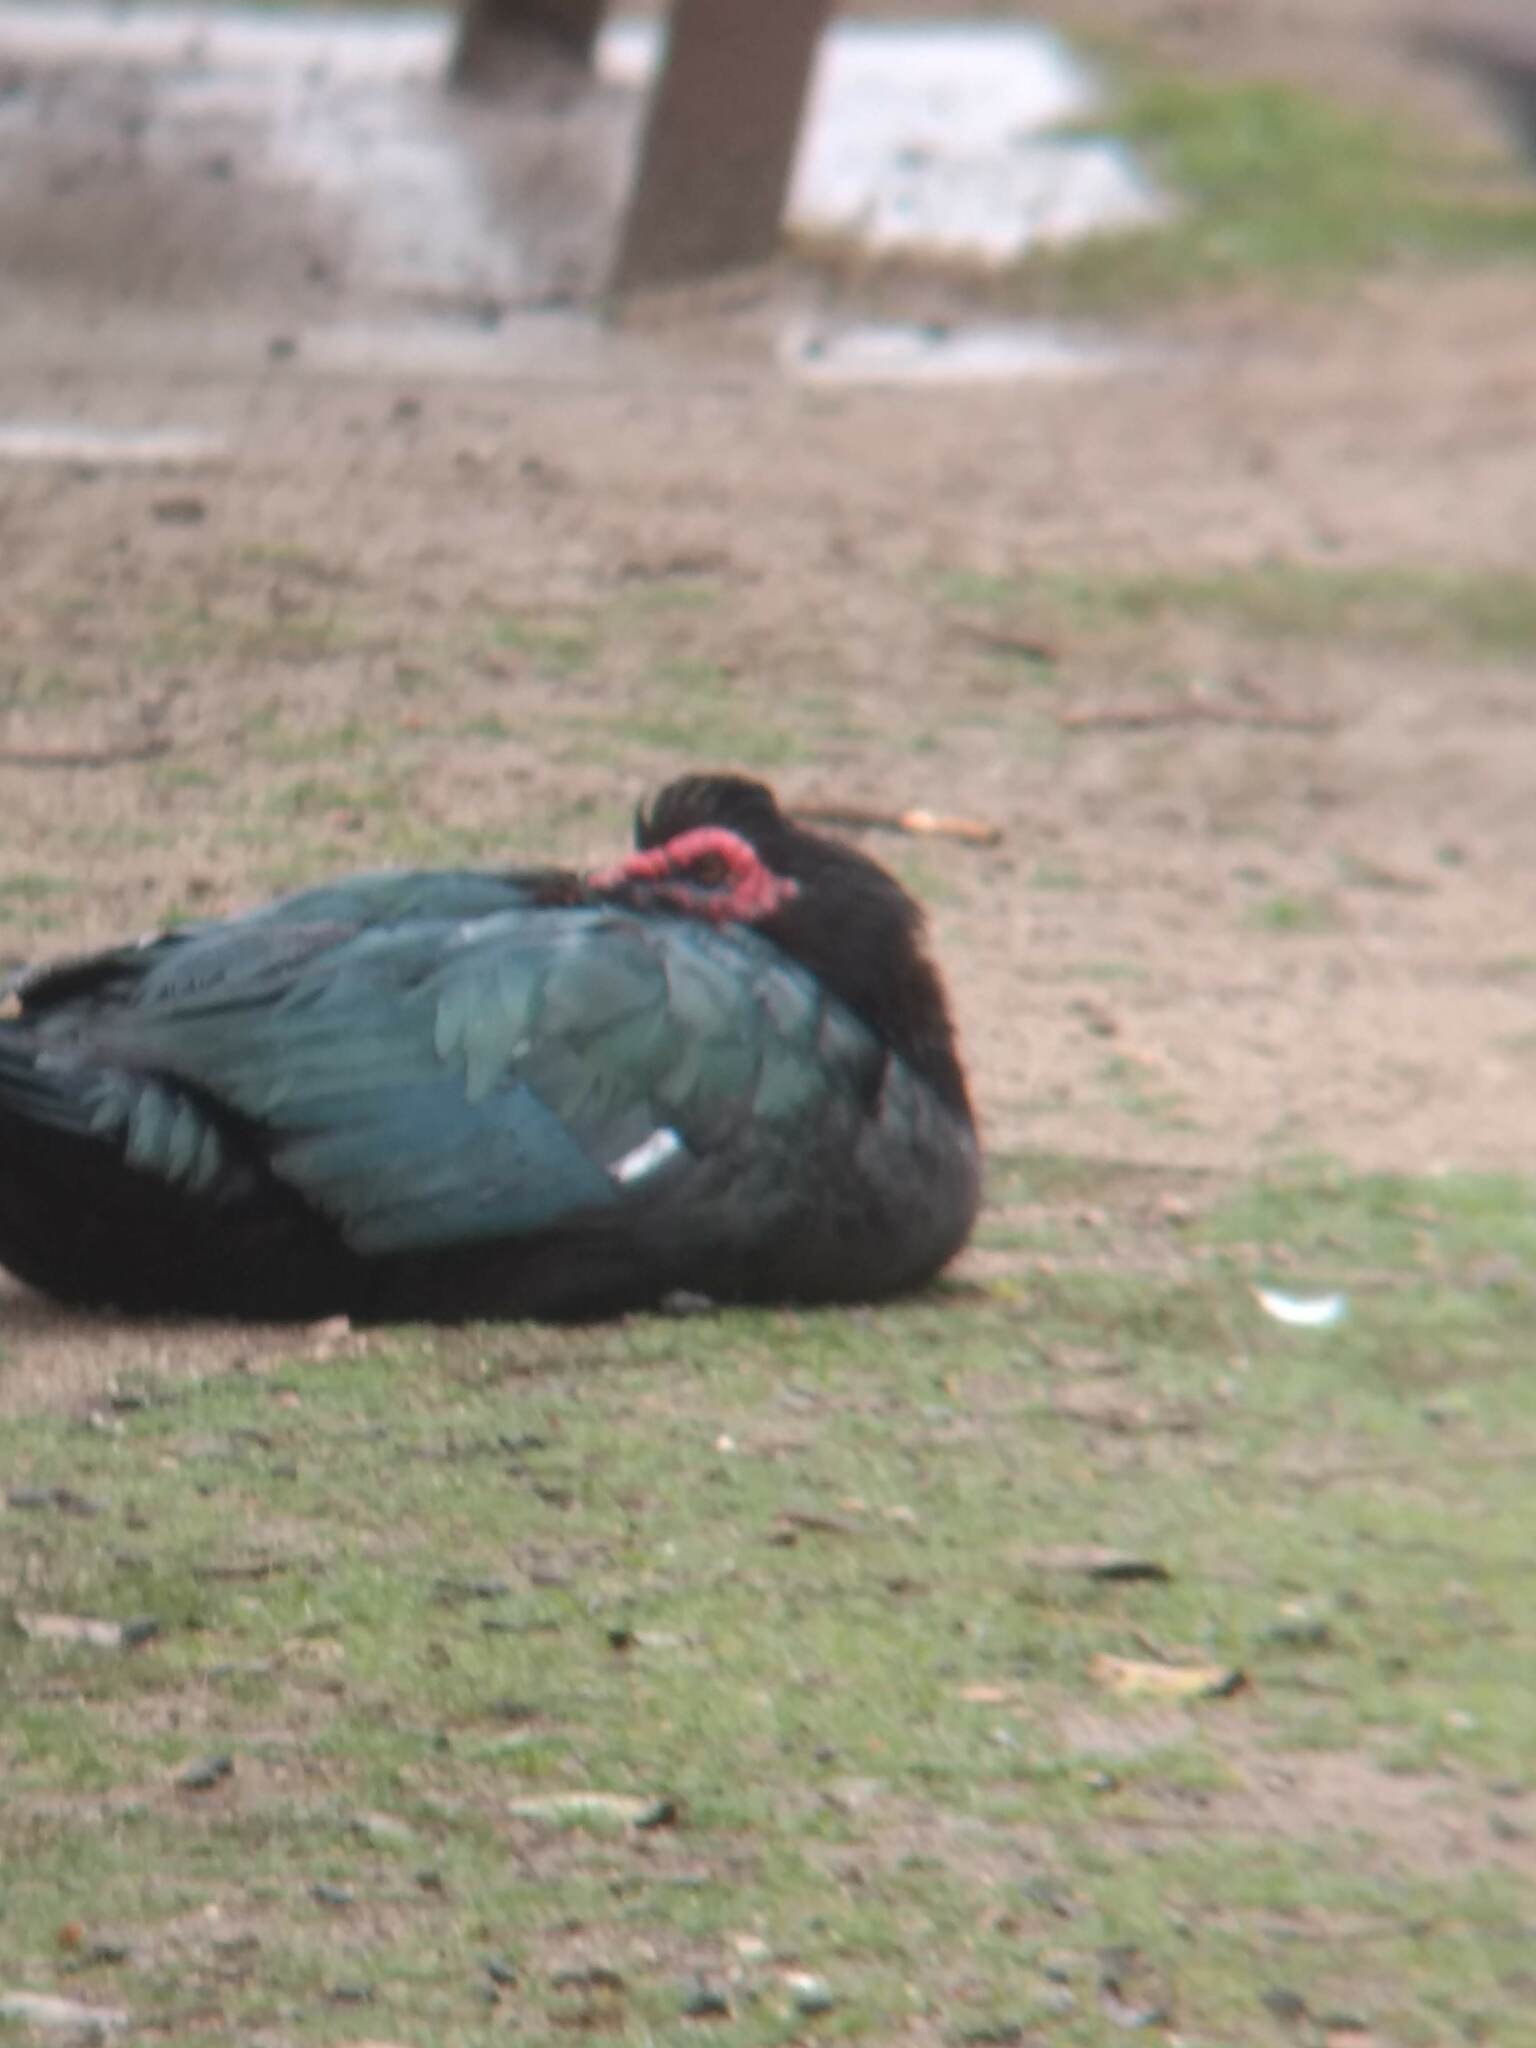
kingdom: Animalia
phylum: Chordata
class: Aves
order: Anseriformes
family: Anatidae
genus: Cairina
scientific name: Cairina moschata
